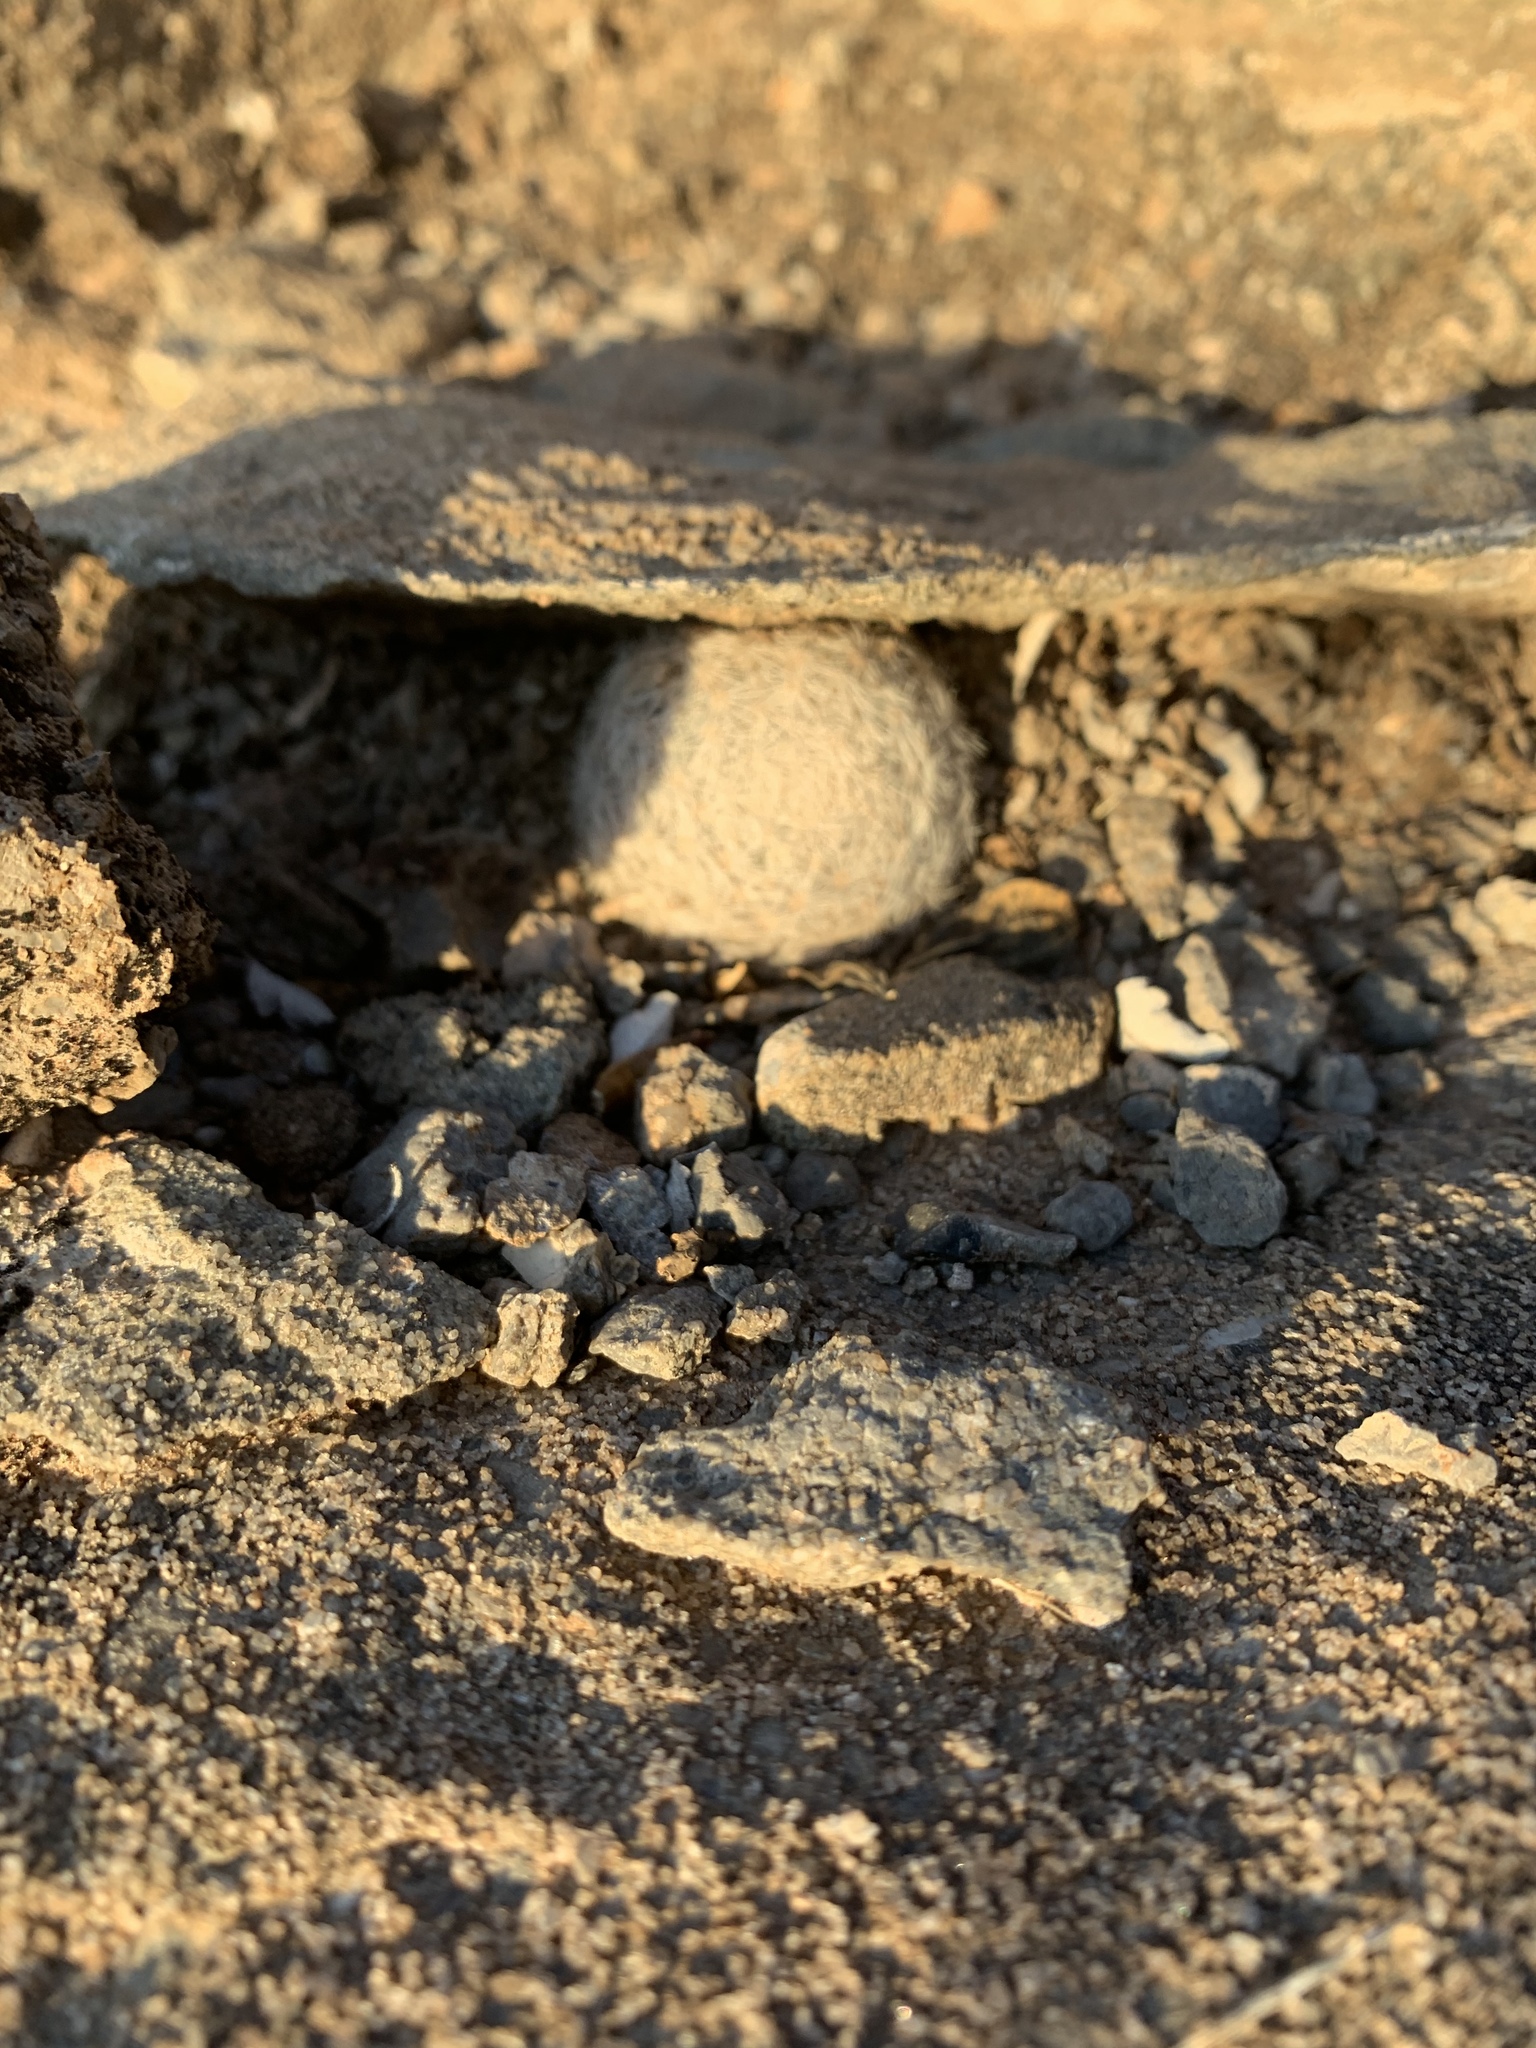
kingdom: Plantae
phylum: Tracheophyta
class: Magnoliopsida
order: Caryophyllales
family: Cactaceae
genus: Mammillaria
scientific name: Mammillaria lasiacantha
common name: Lace-spine nipple cactus
